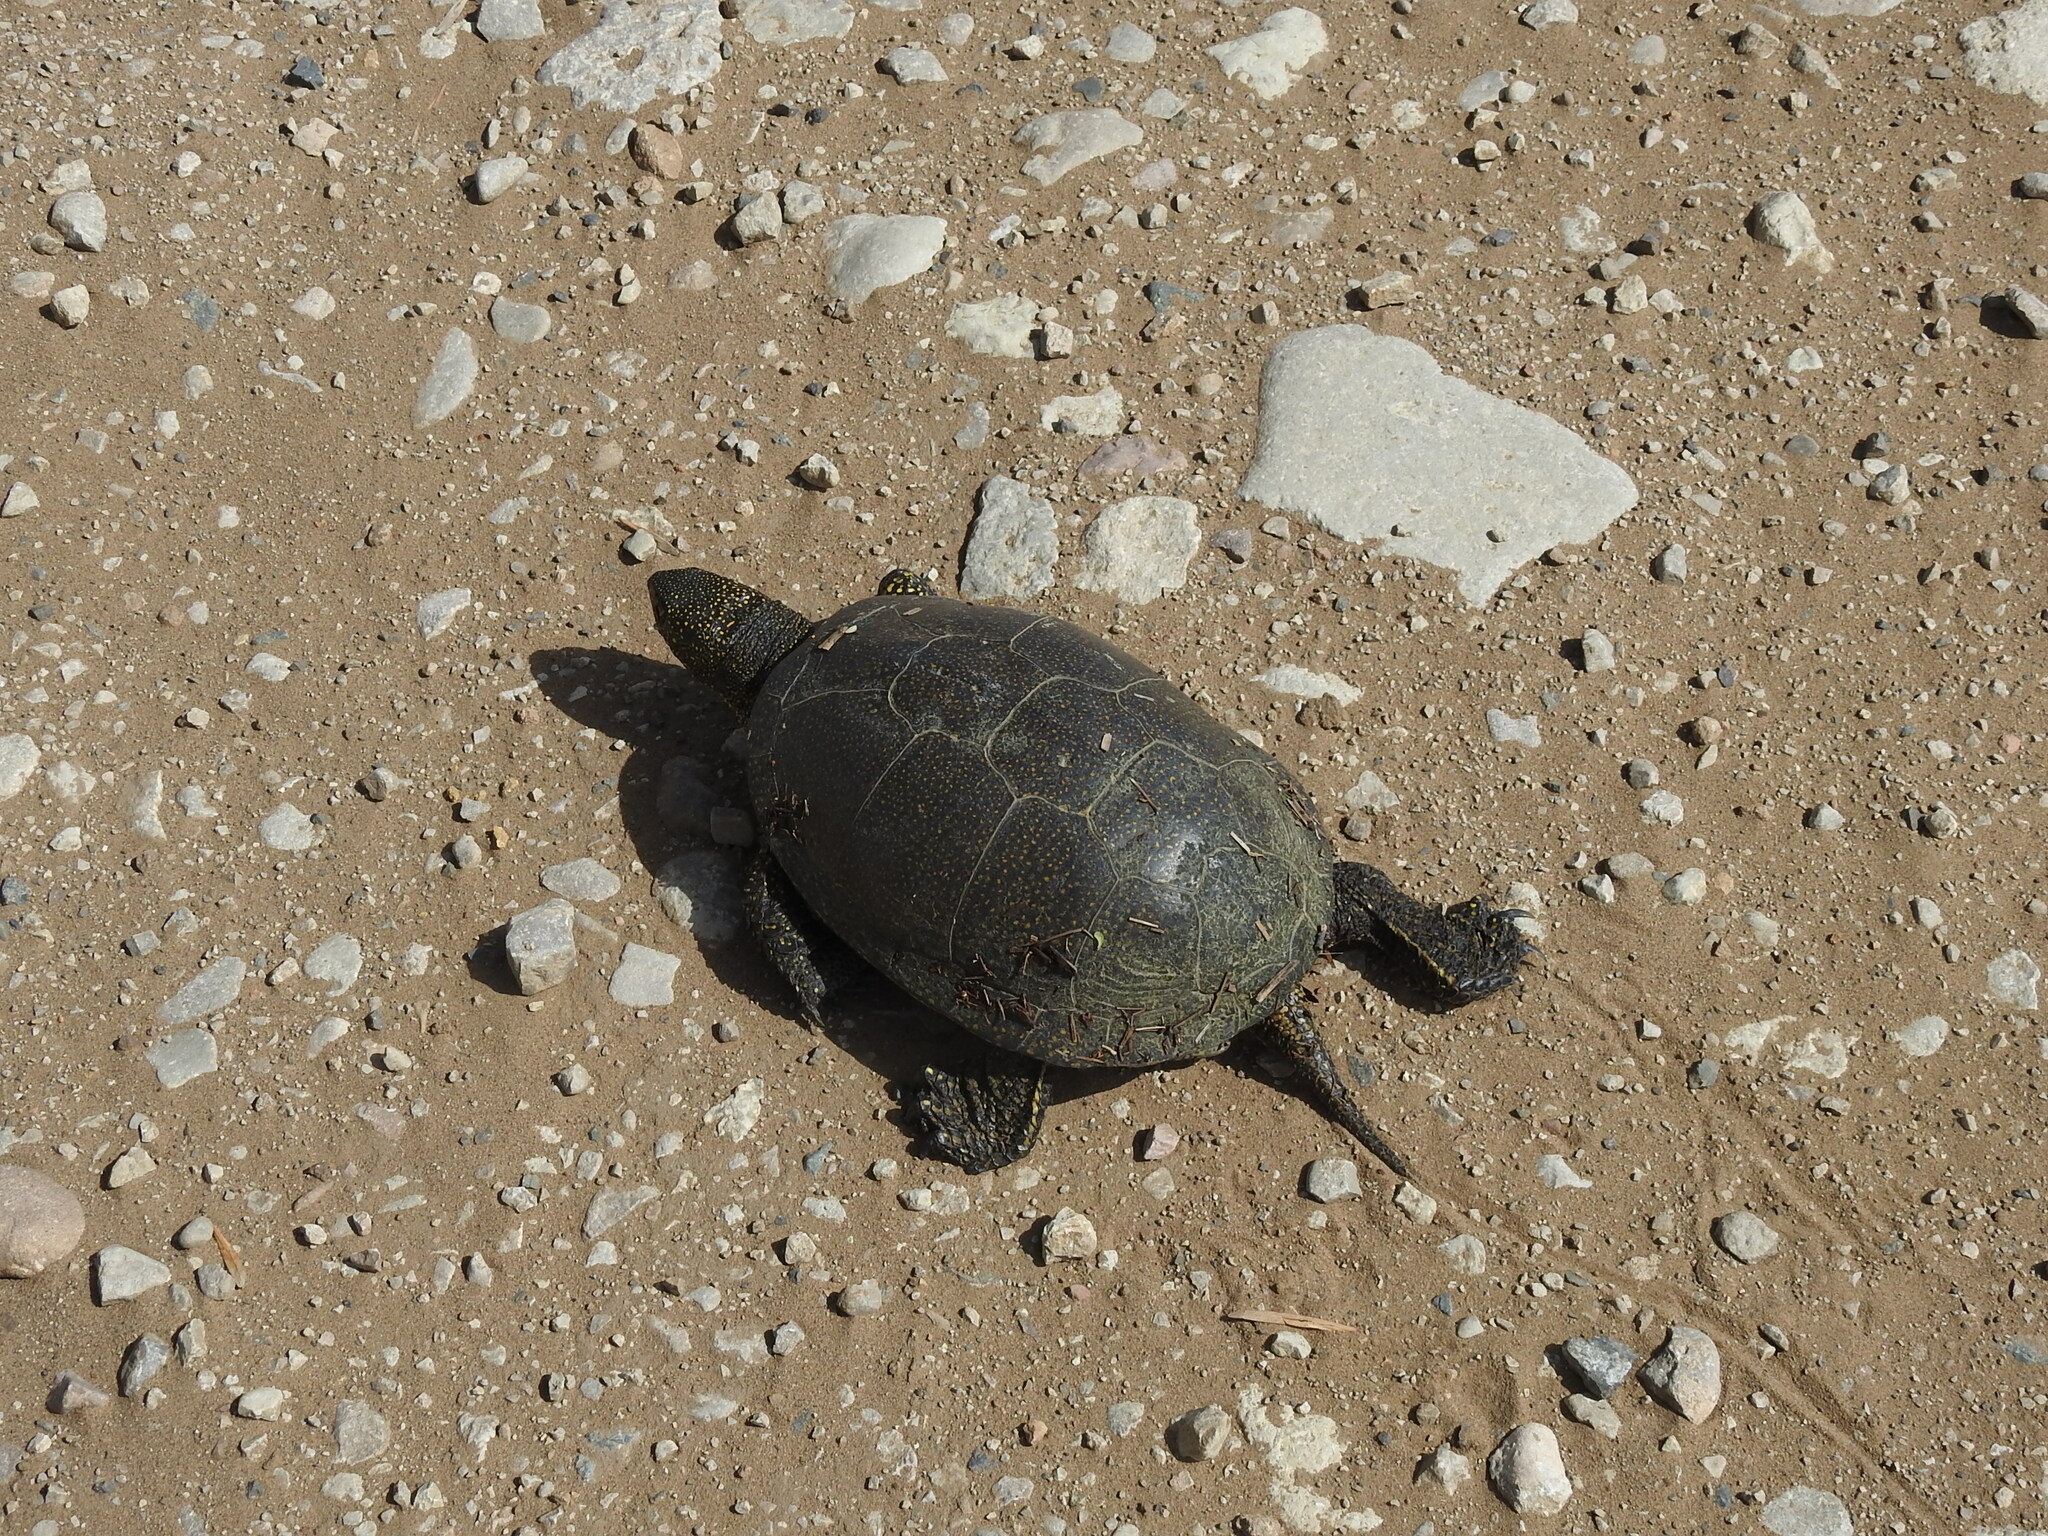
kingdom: Animalia
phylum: Chordata
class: Testudines
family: Emydidae
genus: Emys
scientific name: Emys orbicularis
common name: European pond turtle
